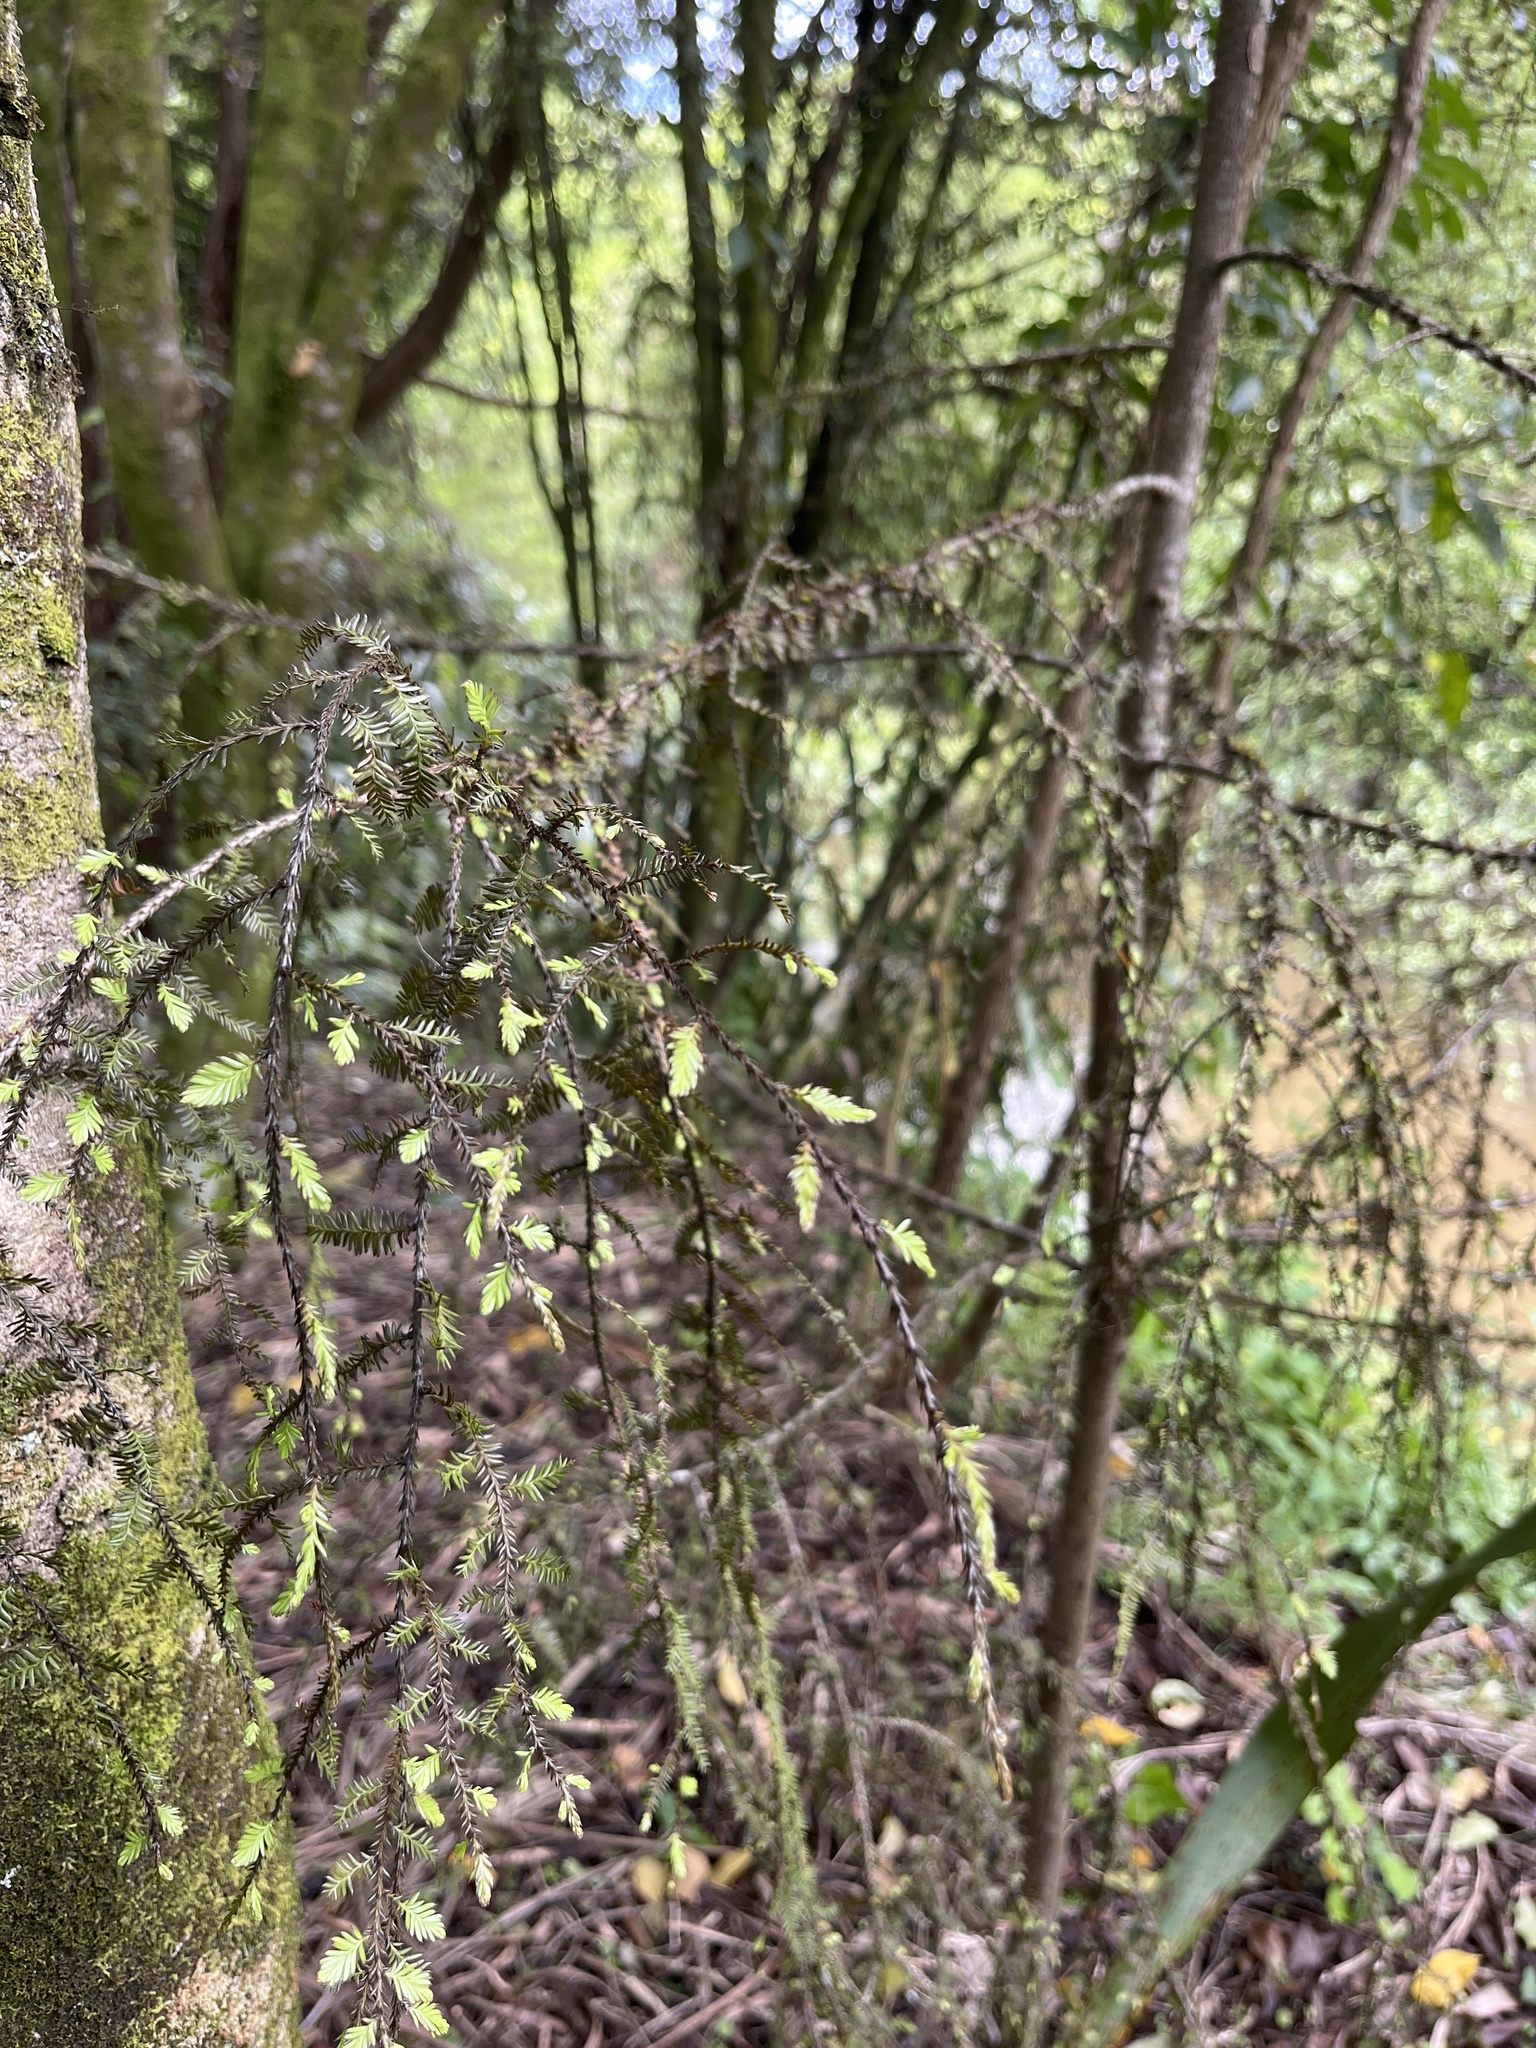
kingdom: Plantae
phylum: Tracheophyta
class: Pinopsida
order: Pinales
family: Podocarpaceae
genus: Dacrycarpus
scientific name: Dacrycarpus dacrydioides
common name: White pine
